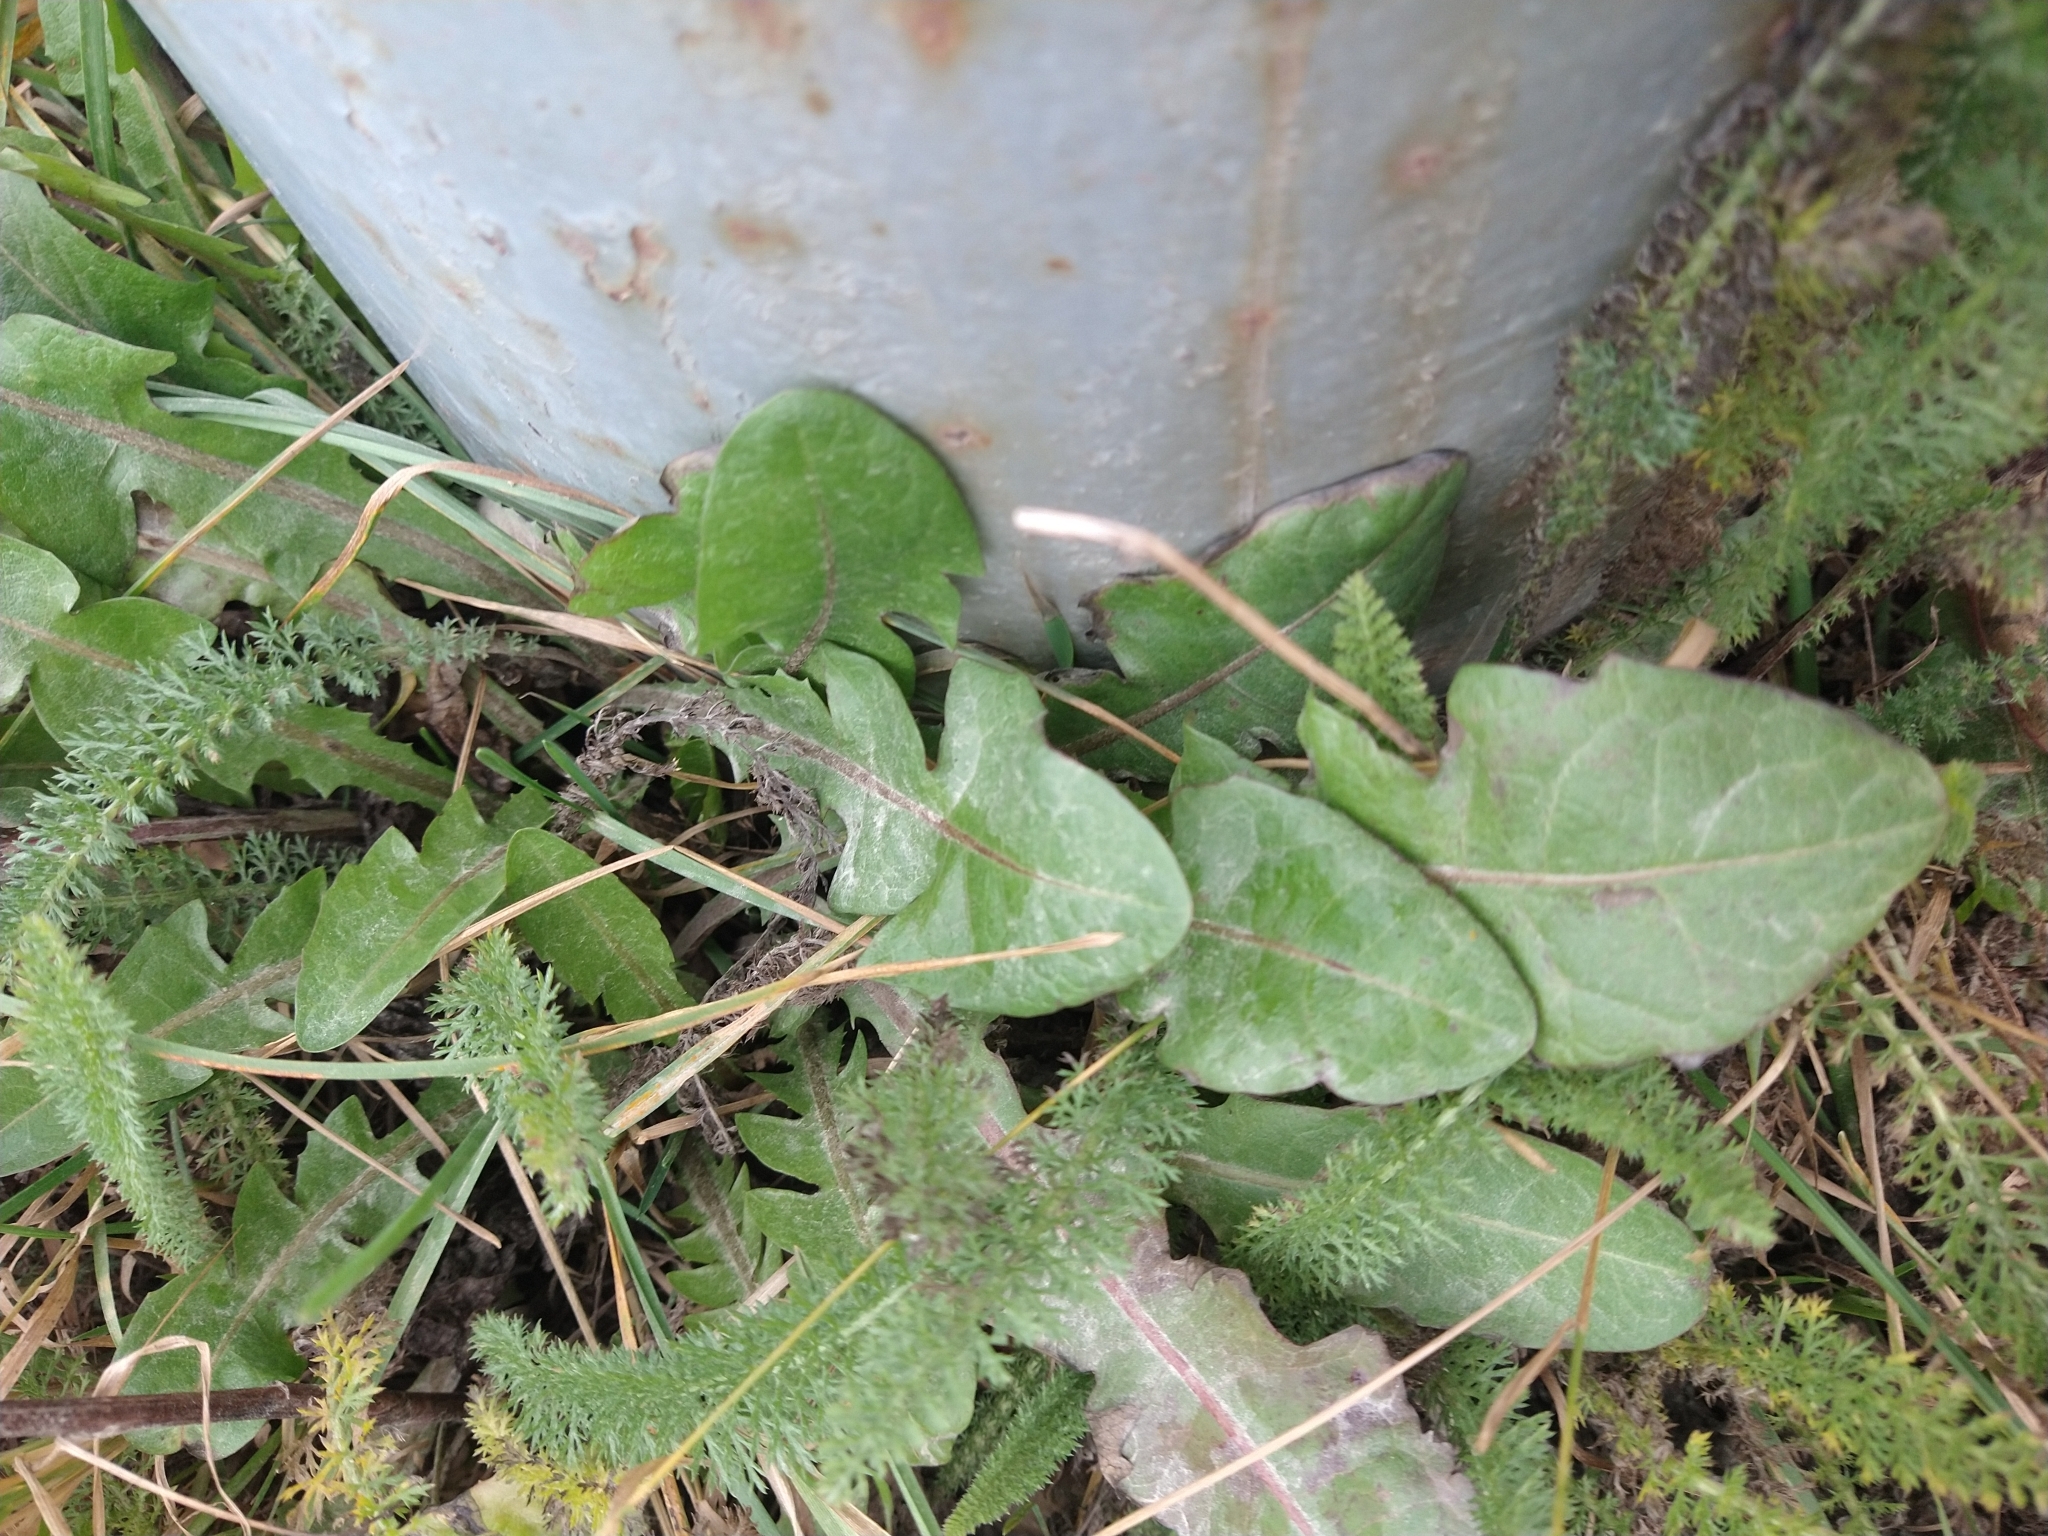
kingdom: Plantae
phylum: Tracheophyta
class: Magnoliopsida
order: Asterales
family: Asteraceae
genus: Taraxacum
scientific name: Taraxacum officinale
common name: Common dandelion
